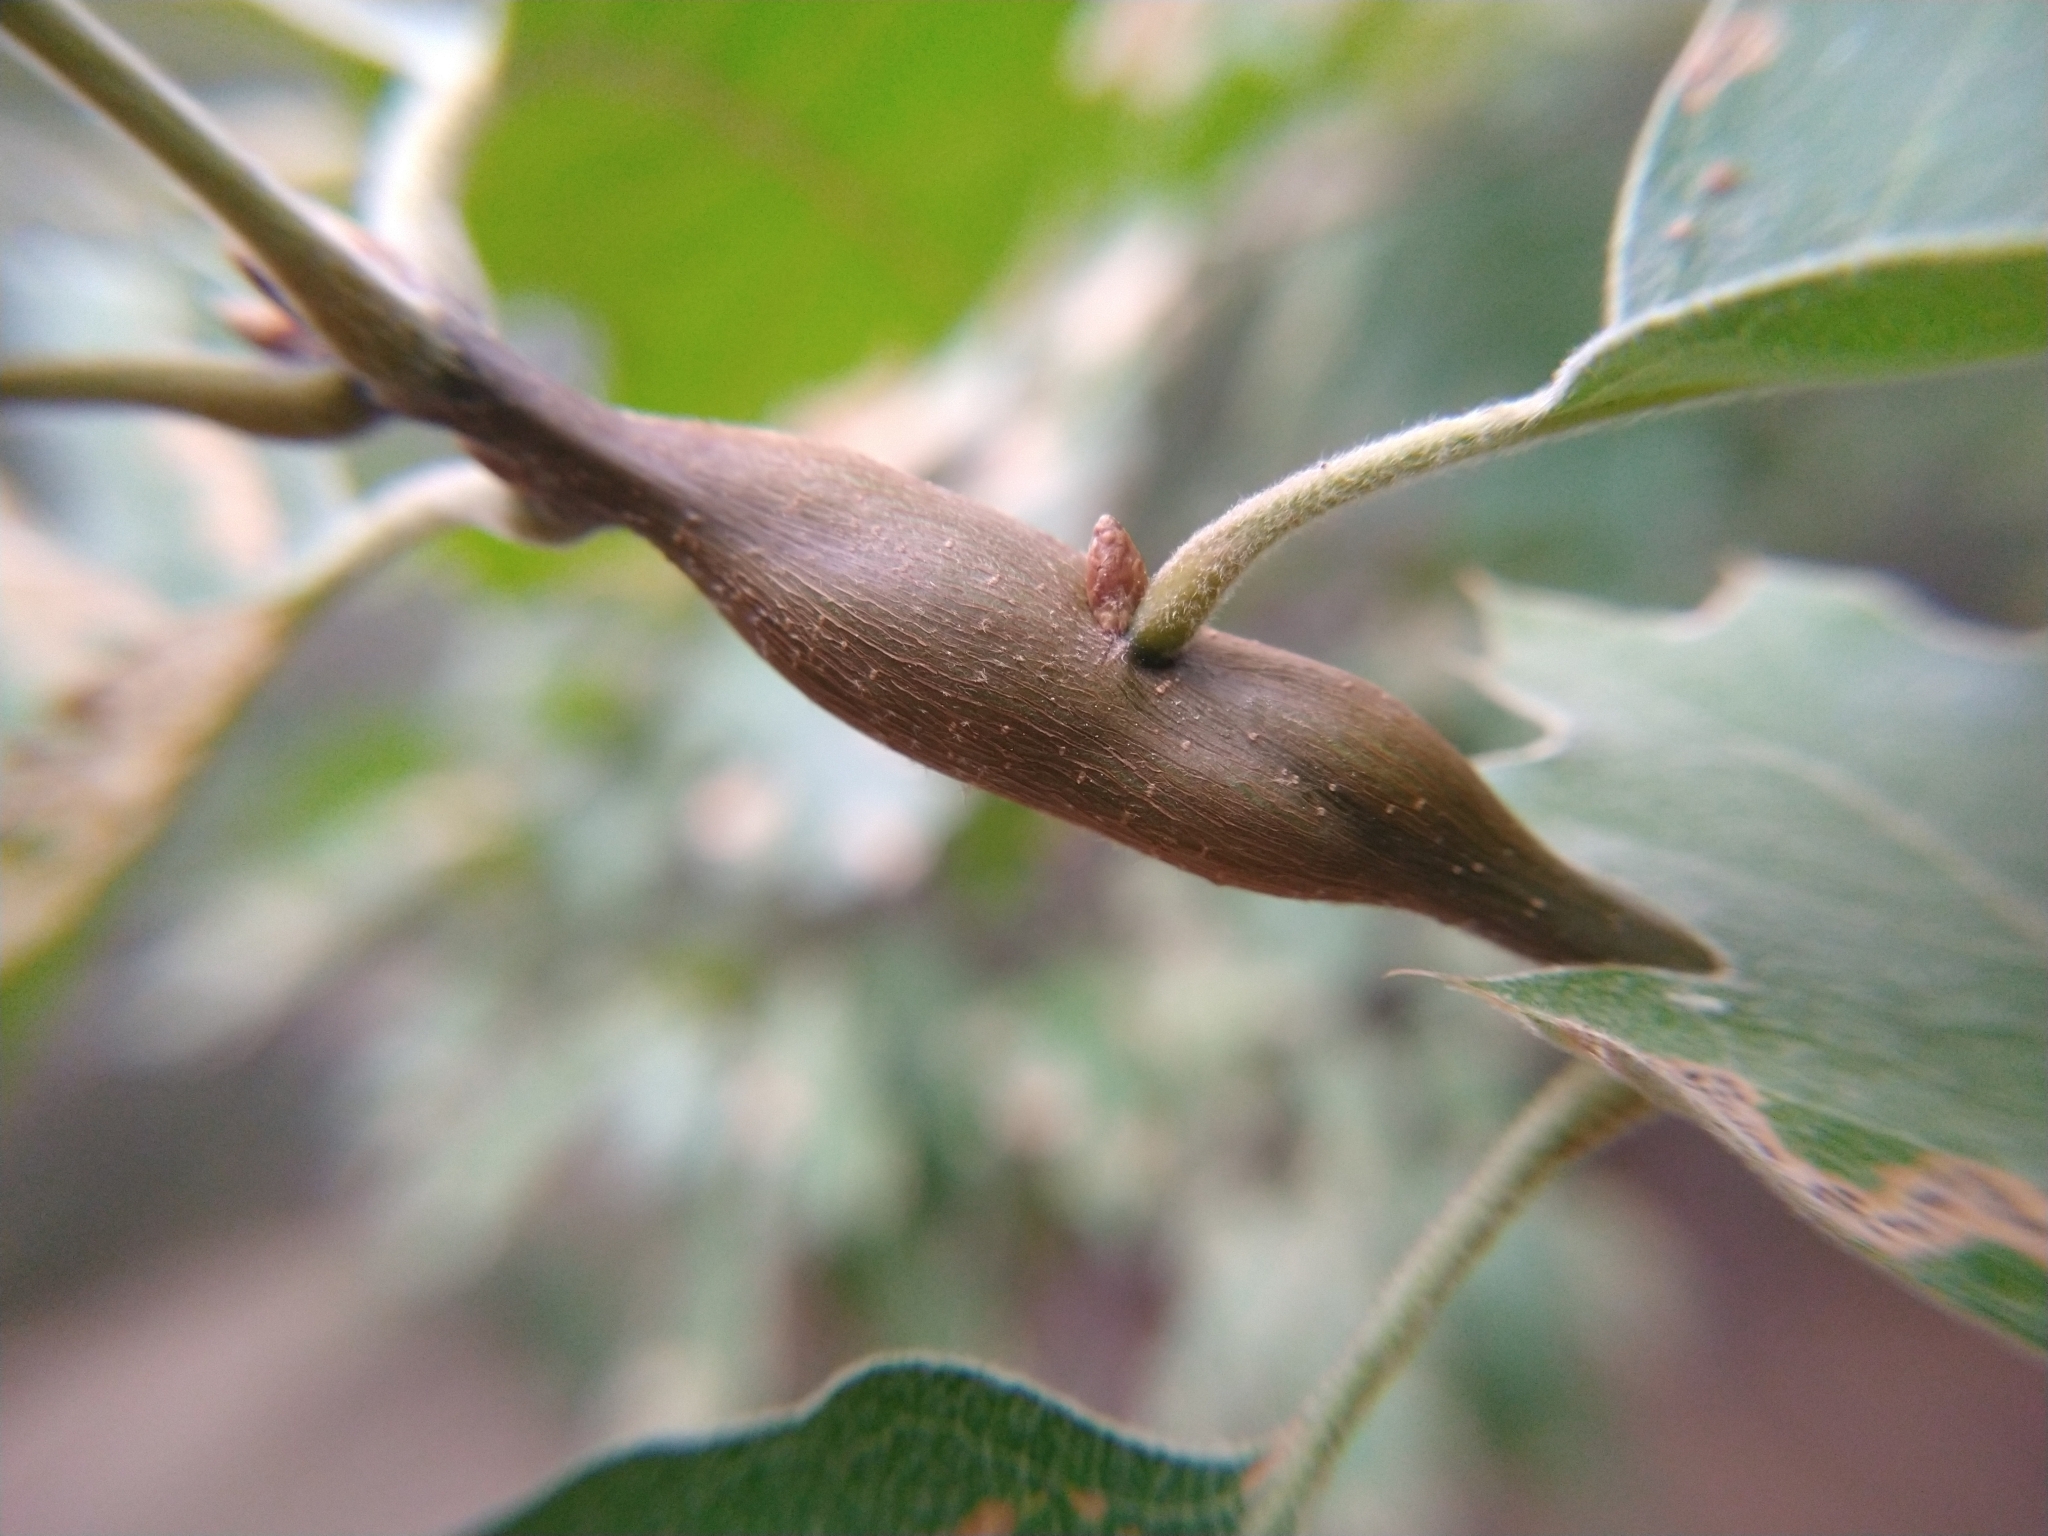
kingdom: Animalia
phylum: Arthropoda
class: Insecta
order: Hymenoptera
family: Cynipidae
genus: Callirhytis
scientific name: Callirhytis
